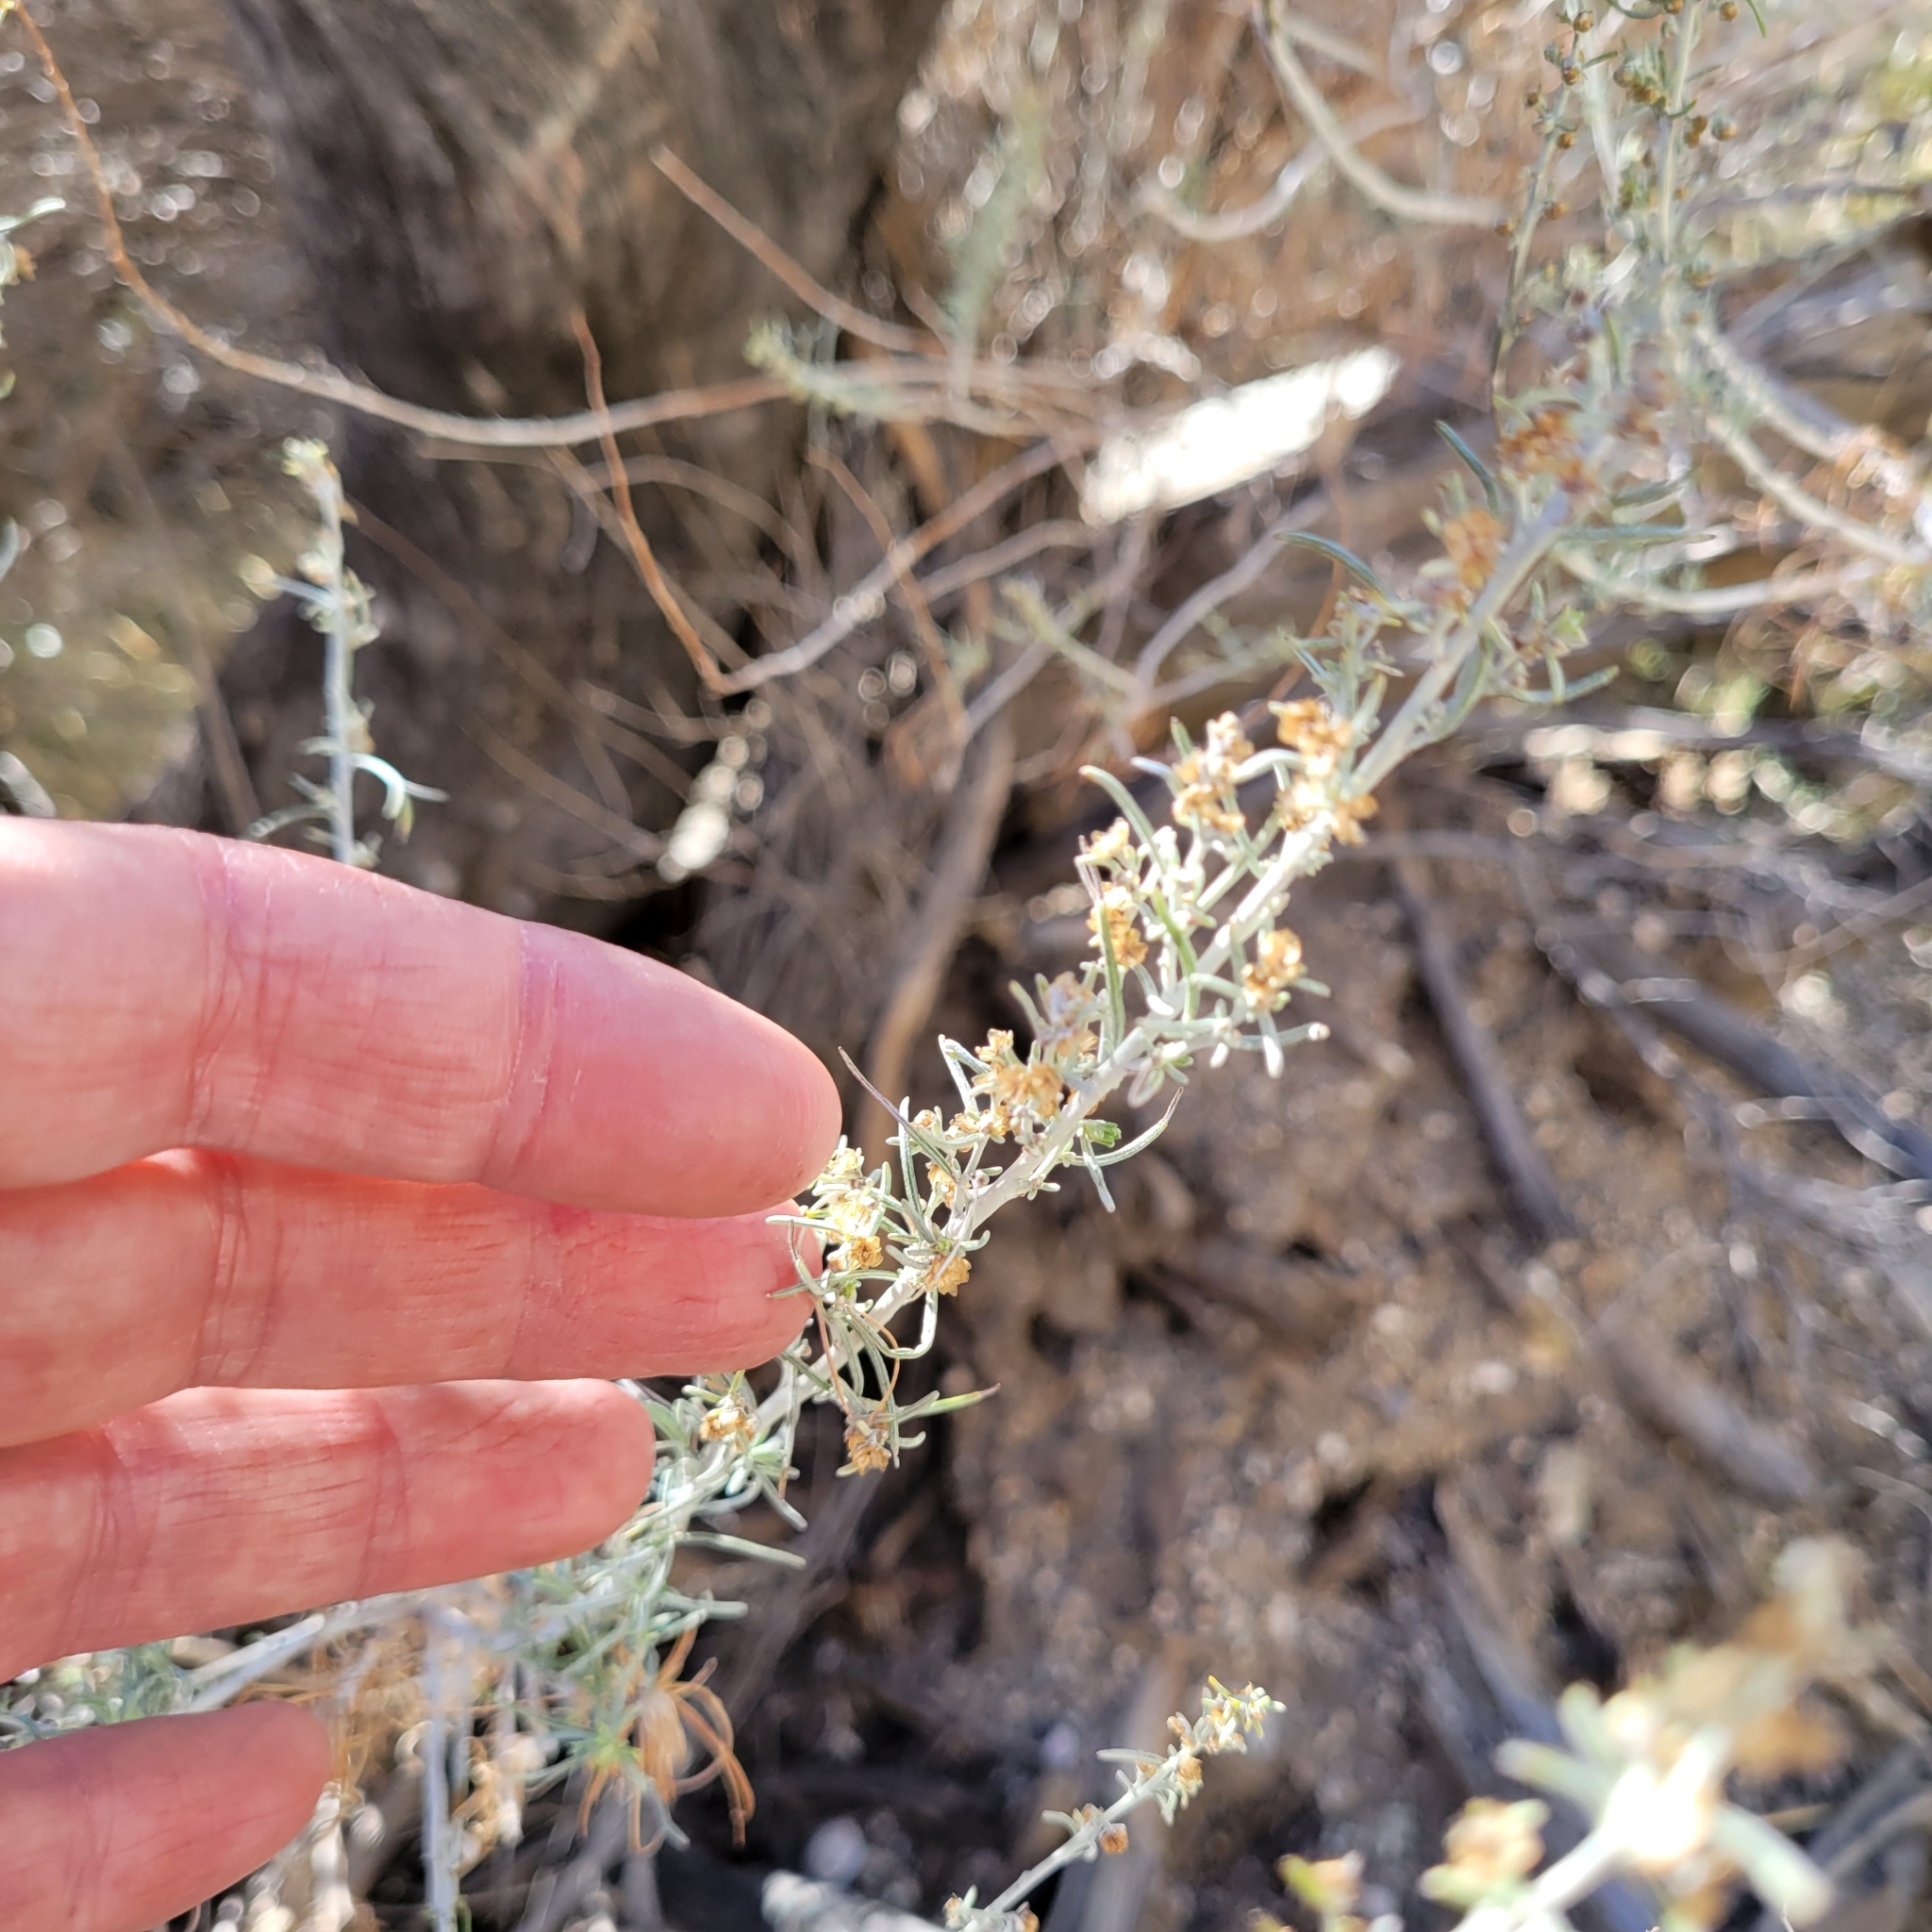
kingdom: Plantae
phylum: Tracheophyta
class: Magnoliopsida
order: Asterales
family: Asteraceae
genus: Artemisia
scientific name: Artemisia californica
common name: California sagebrush
